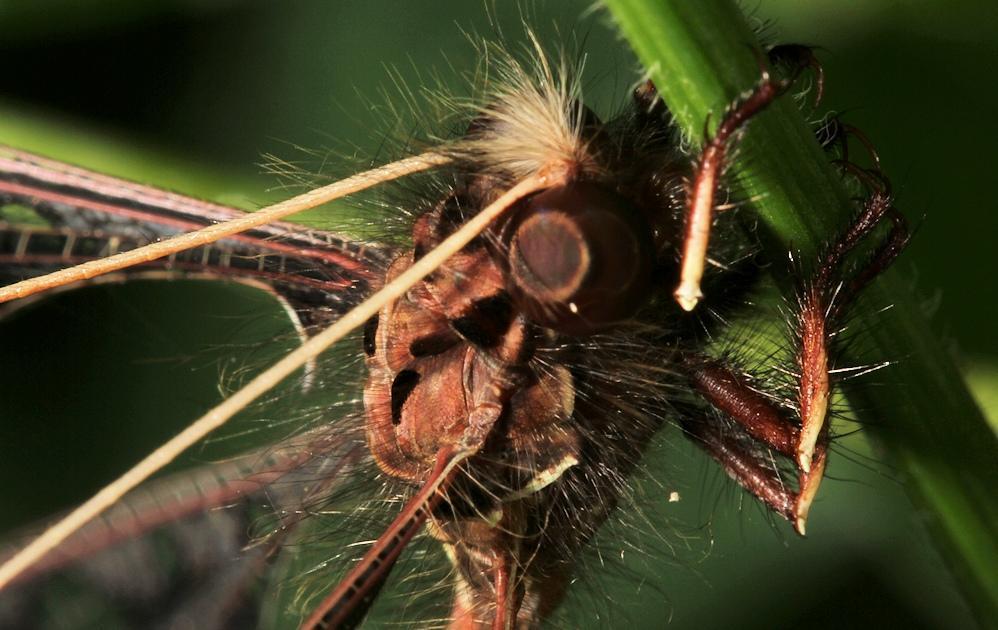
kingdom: Animalia
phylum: Arthropoda
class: Insecta
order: Neuroptera
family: Ascalaphidae
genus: Tmesibasis
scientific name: Tmesibasis lacerata
